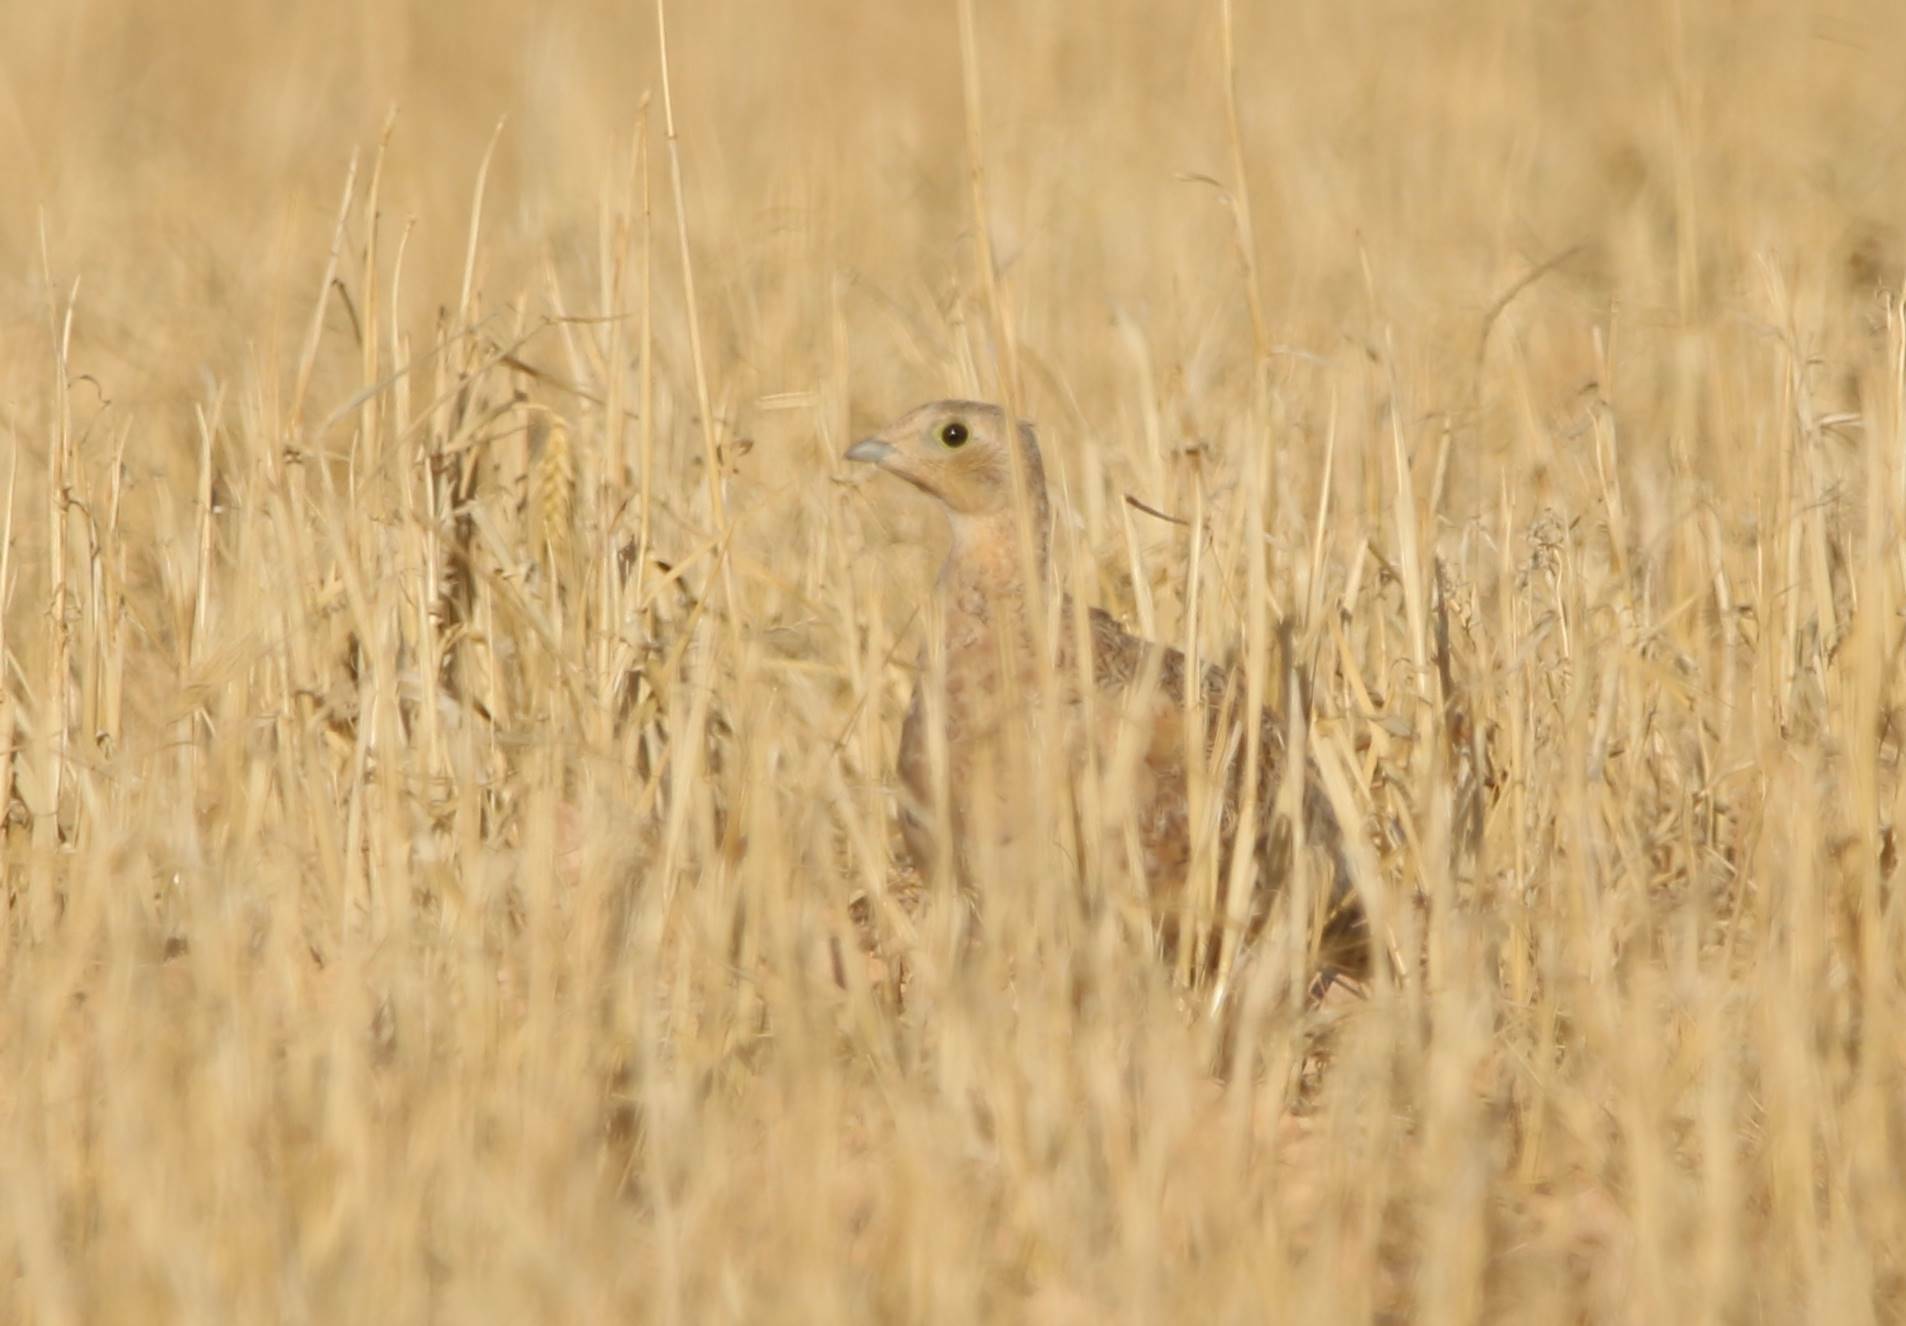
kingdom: Animalia
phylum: Chordata
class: Aves
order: Pteroclidiformes
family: Pteroclididae
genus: Pterocles
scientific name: Pterocles orientalis
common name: Black-bellied sandgrouse
